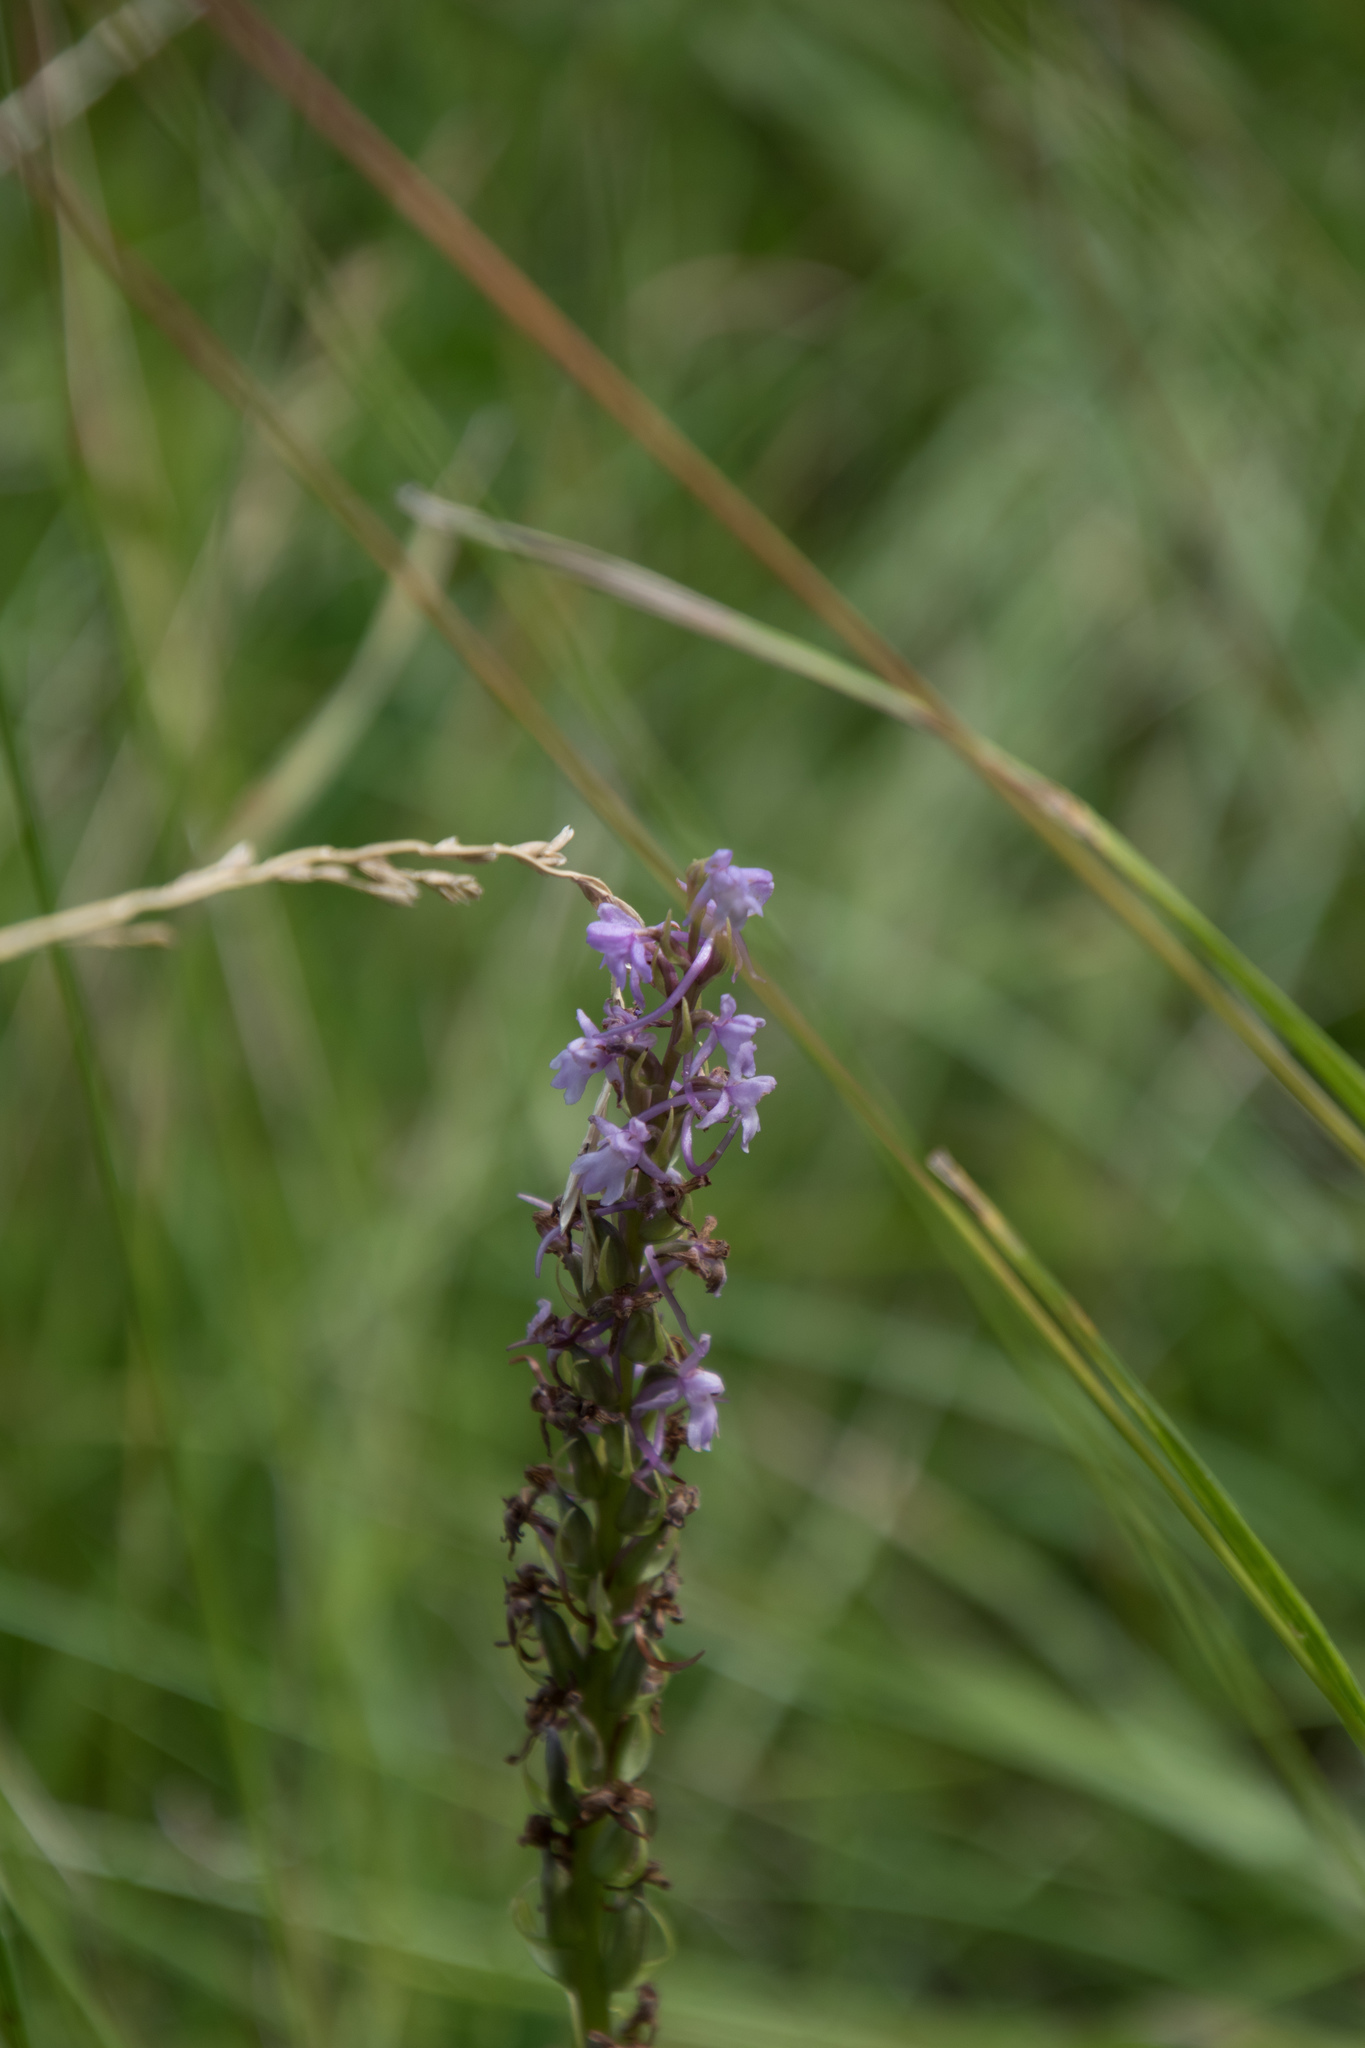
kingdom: Plantae
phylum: Tracheophyta
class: Liliopsida
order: Asparagales
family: Orchidaceae
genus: Gymnadenia
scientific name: Gymnadenia conopsea
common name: Fragrant orchid
